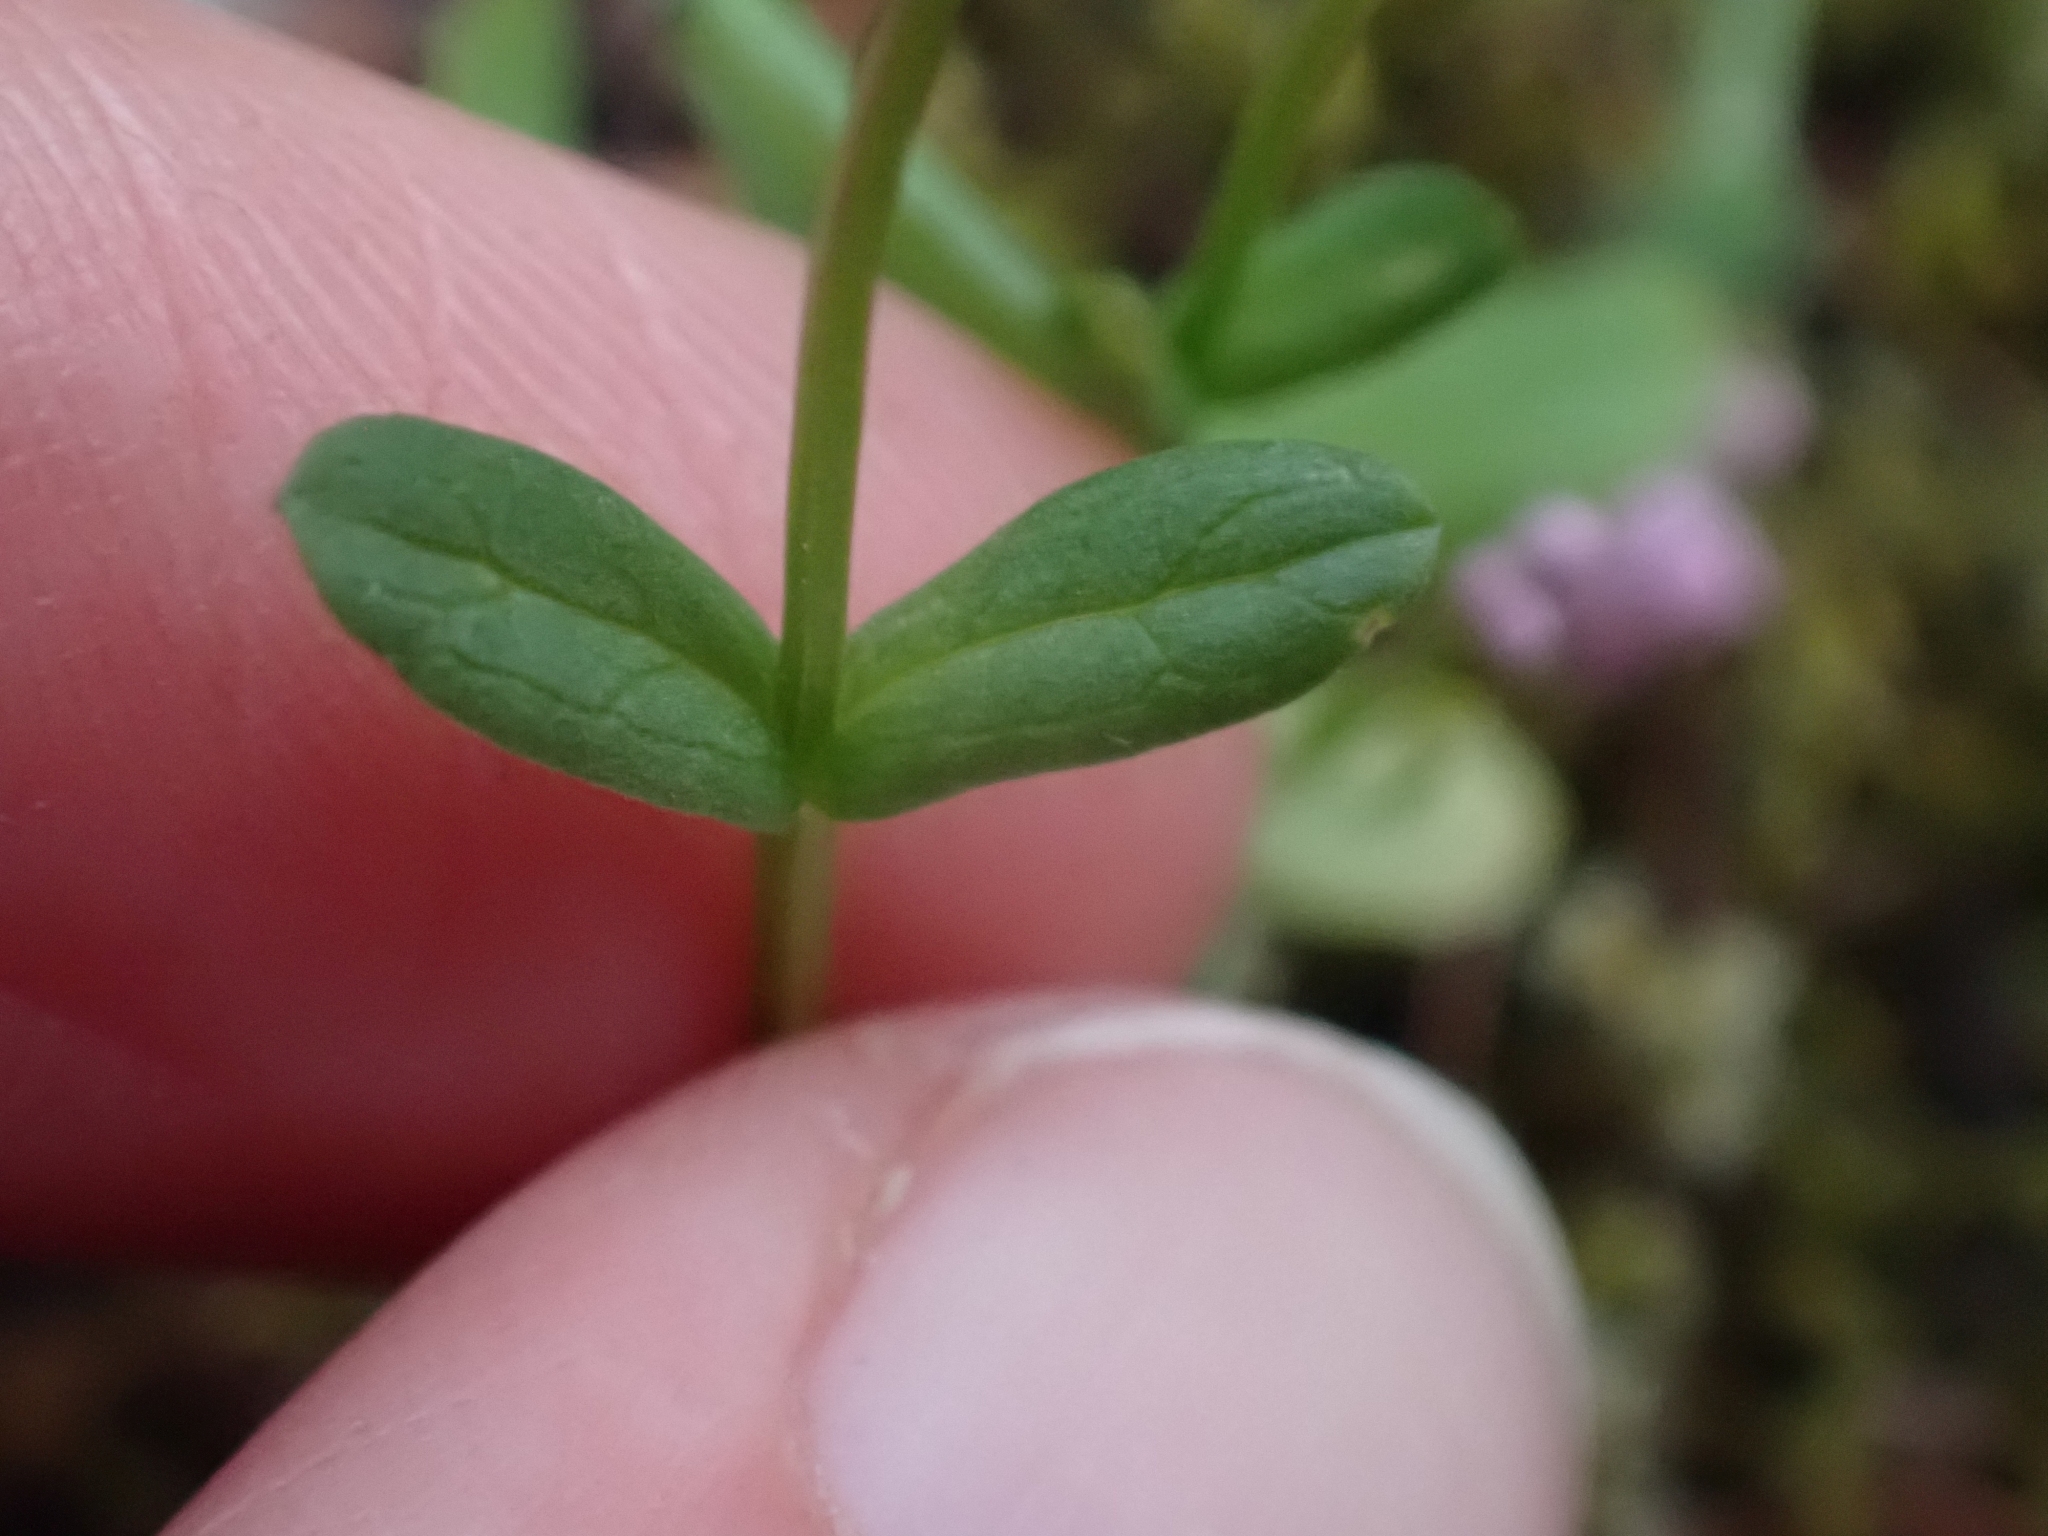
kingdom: Plantae
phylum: Tracheophyta
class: Magnoliopsida
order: Dipsacales
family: Caprifoliaceae
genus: Plectritis
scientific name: Plectritis congesta
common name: Pink plectritis
